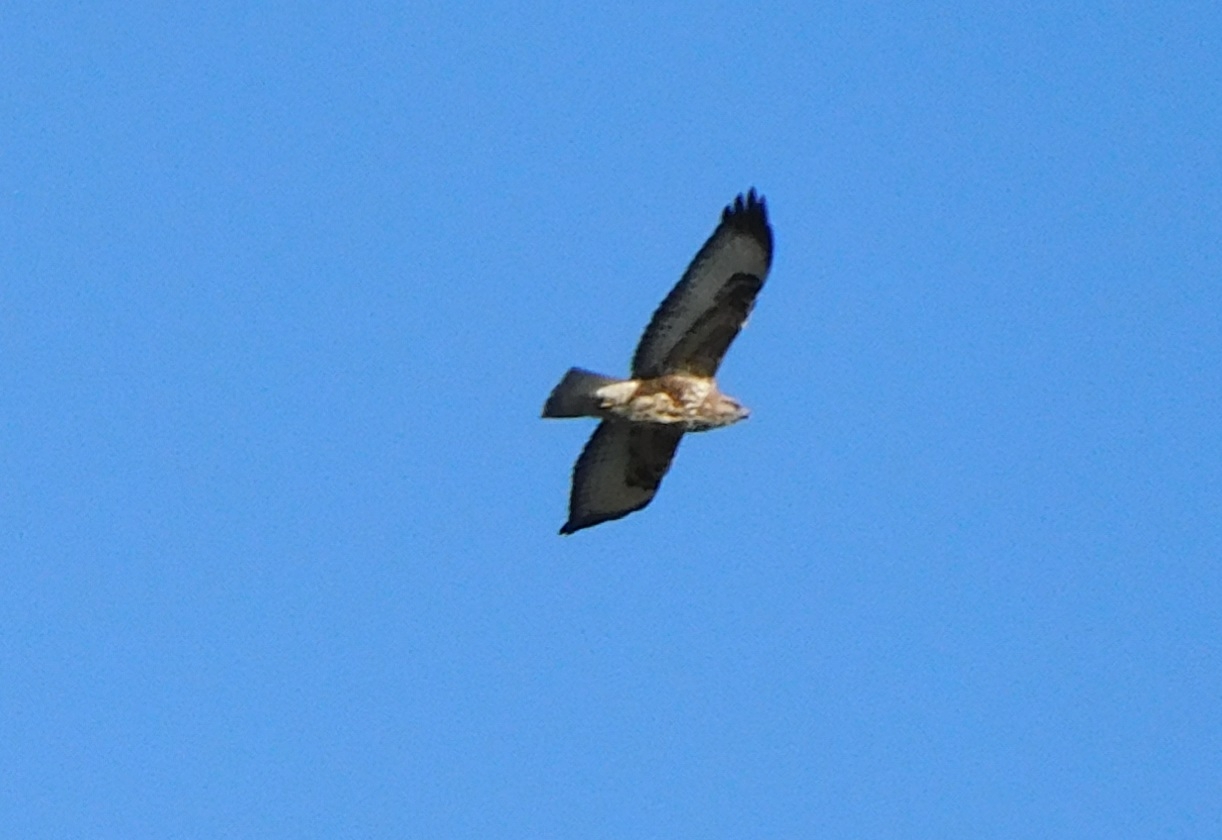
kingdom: Animalia
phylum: Chordata
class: Aves
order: Accipitriformes
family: Accipitridae
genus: Buteo
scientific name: Buteo buteo
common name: Common buzzard
